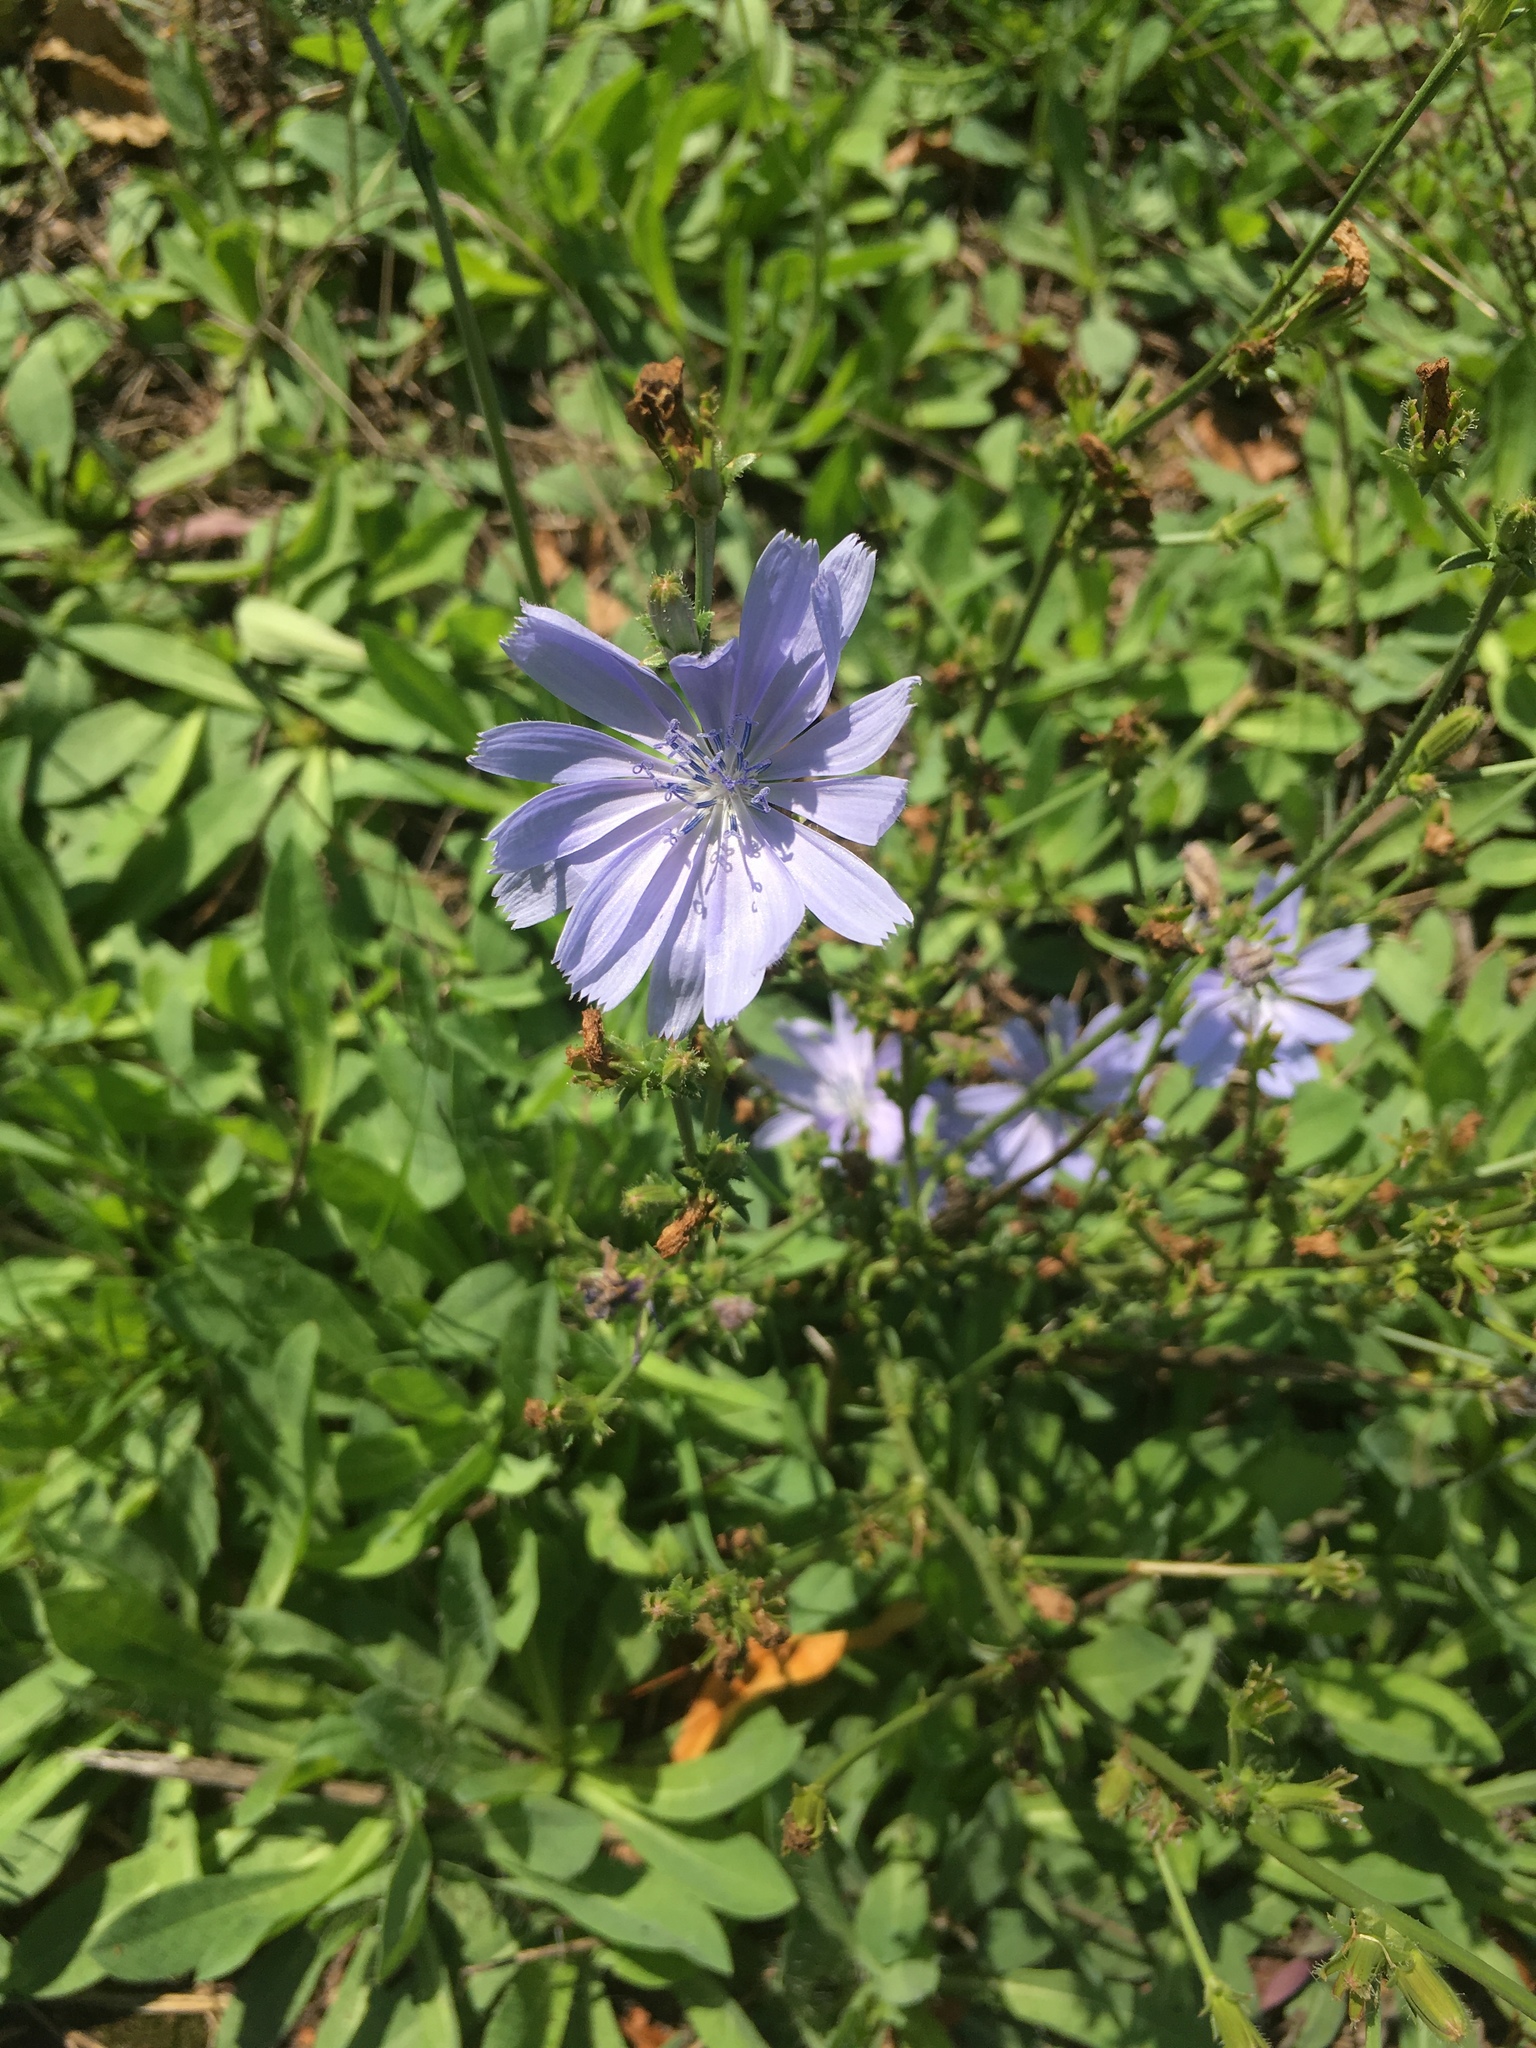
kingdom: Plantae
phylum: Tracheophyta
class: Magnoliopsida
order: Asterales
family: Asteraceae
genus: Cichorium
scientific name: Cichorium intybus
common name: Chicory
